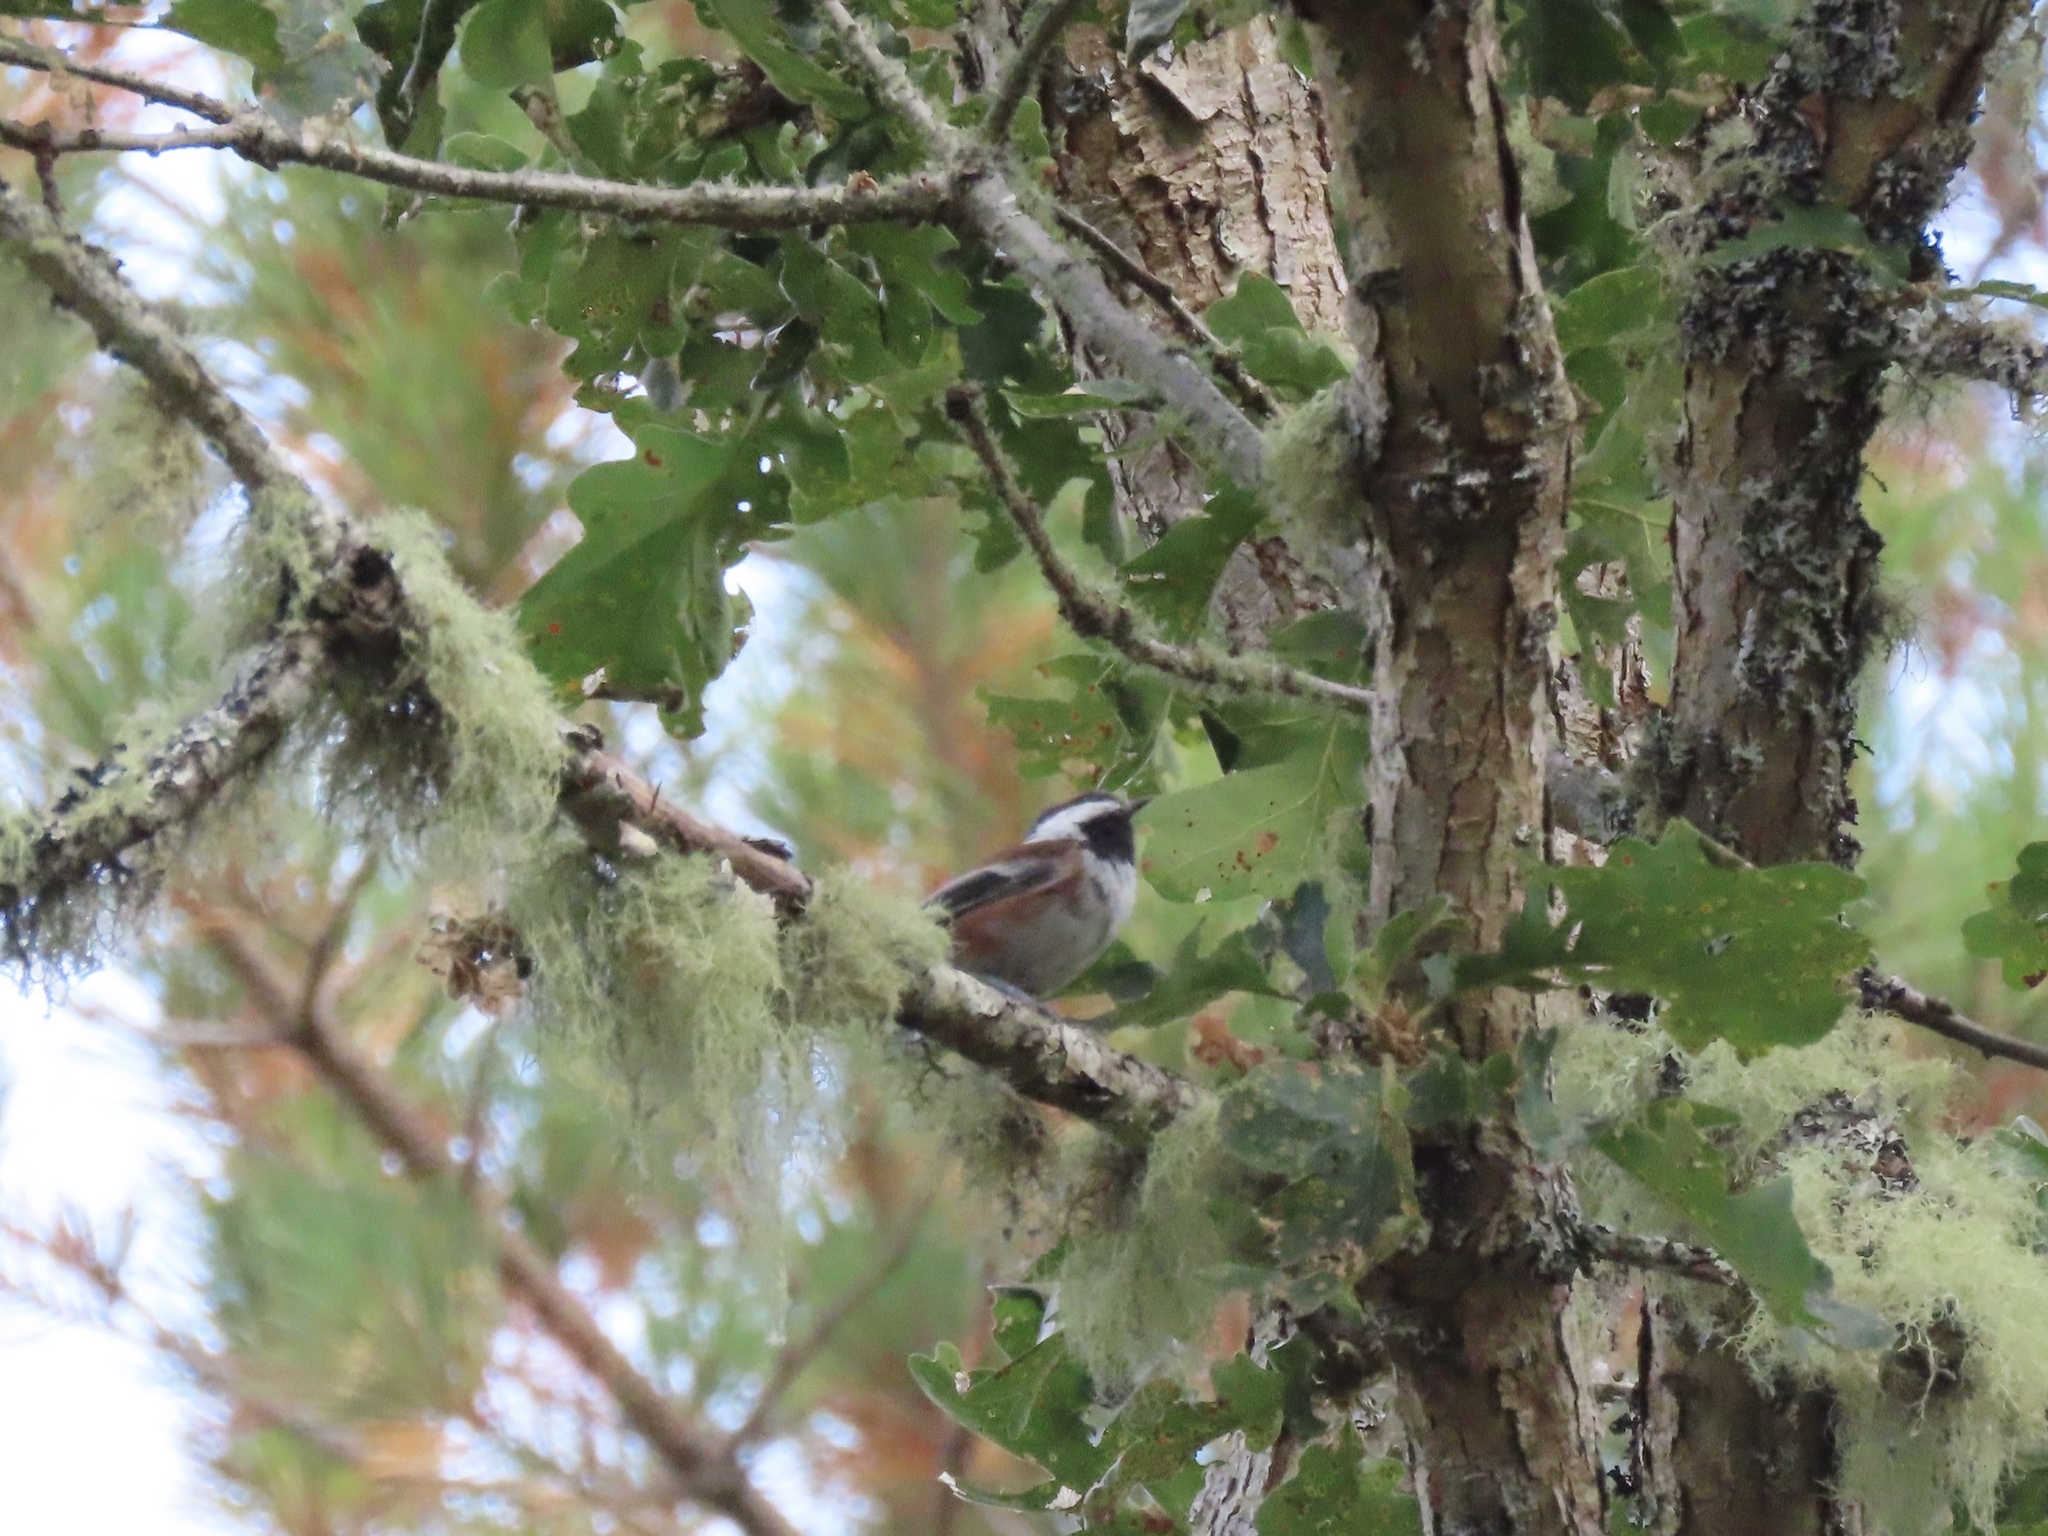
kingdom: Animalia
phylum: Chordata
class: Aves
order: Passeriformes
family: Paridae
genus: Poecile
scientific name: Poecile rufescens
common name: Chestnut-backed chickadee
